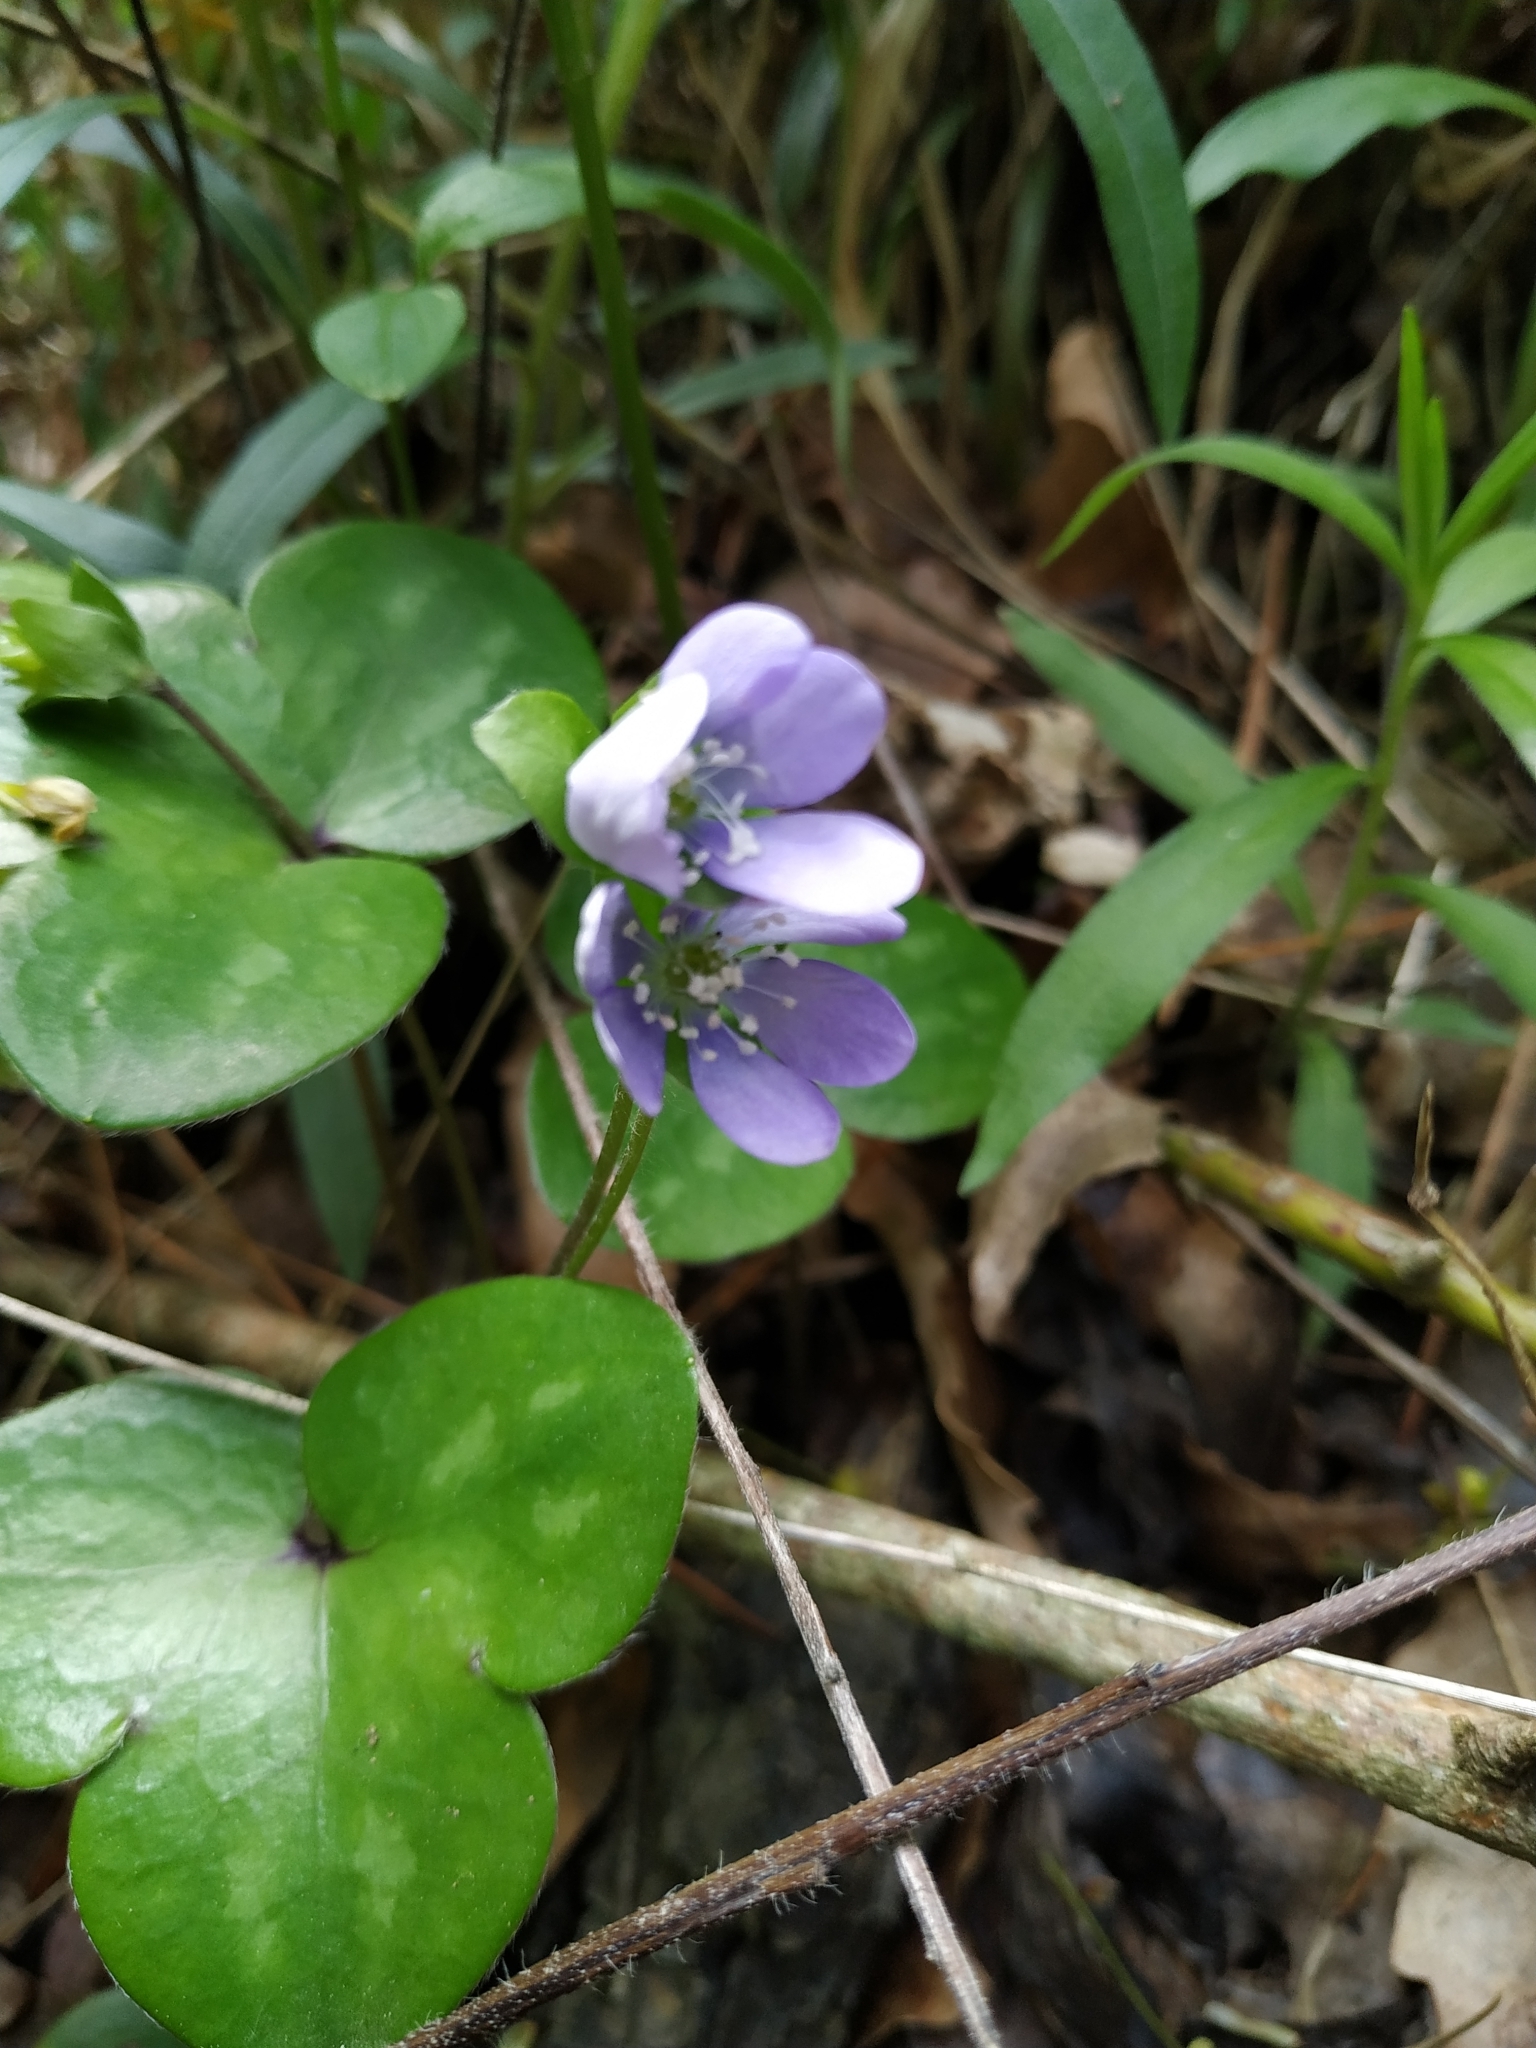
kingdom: Plantae
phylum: Tracheophyta
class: Magnoliopsida
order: Ranunculales
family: Ranunculaceae
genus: Hepatica
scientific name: Hepatica nobilis
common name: Liverleaf
